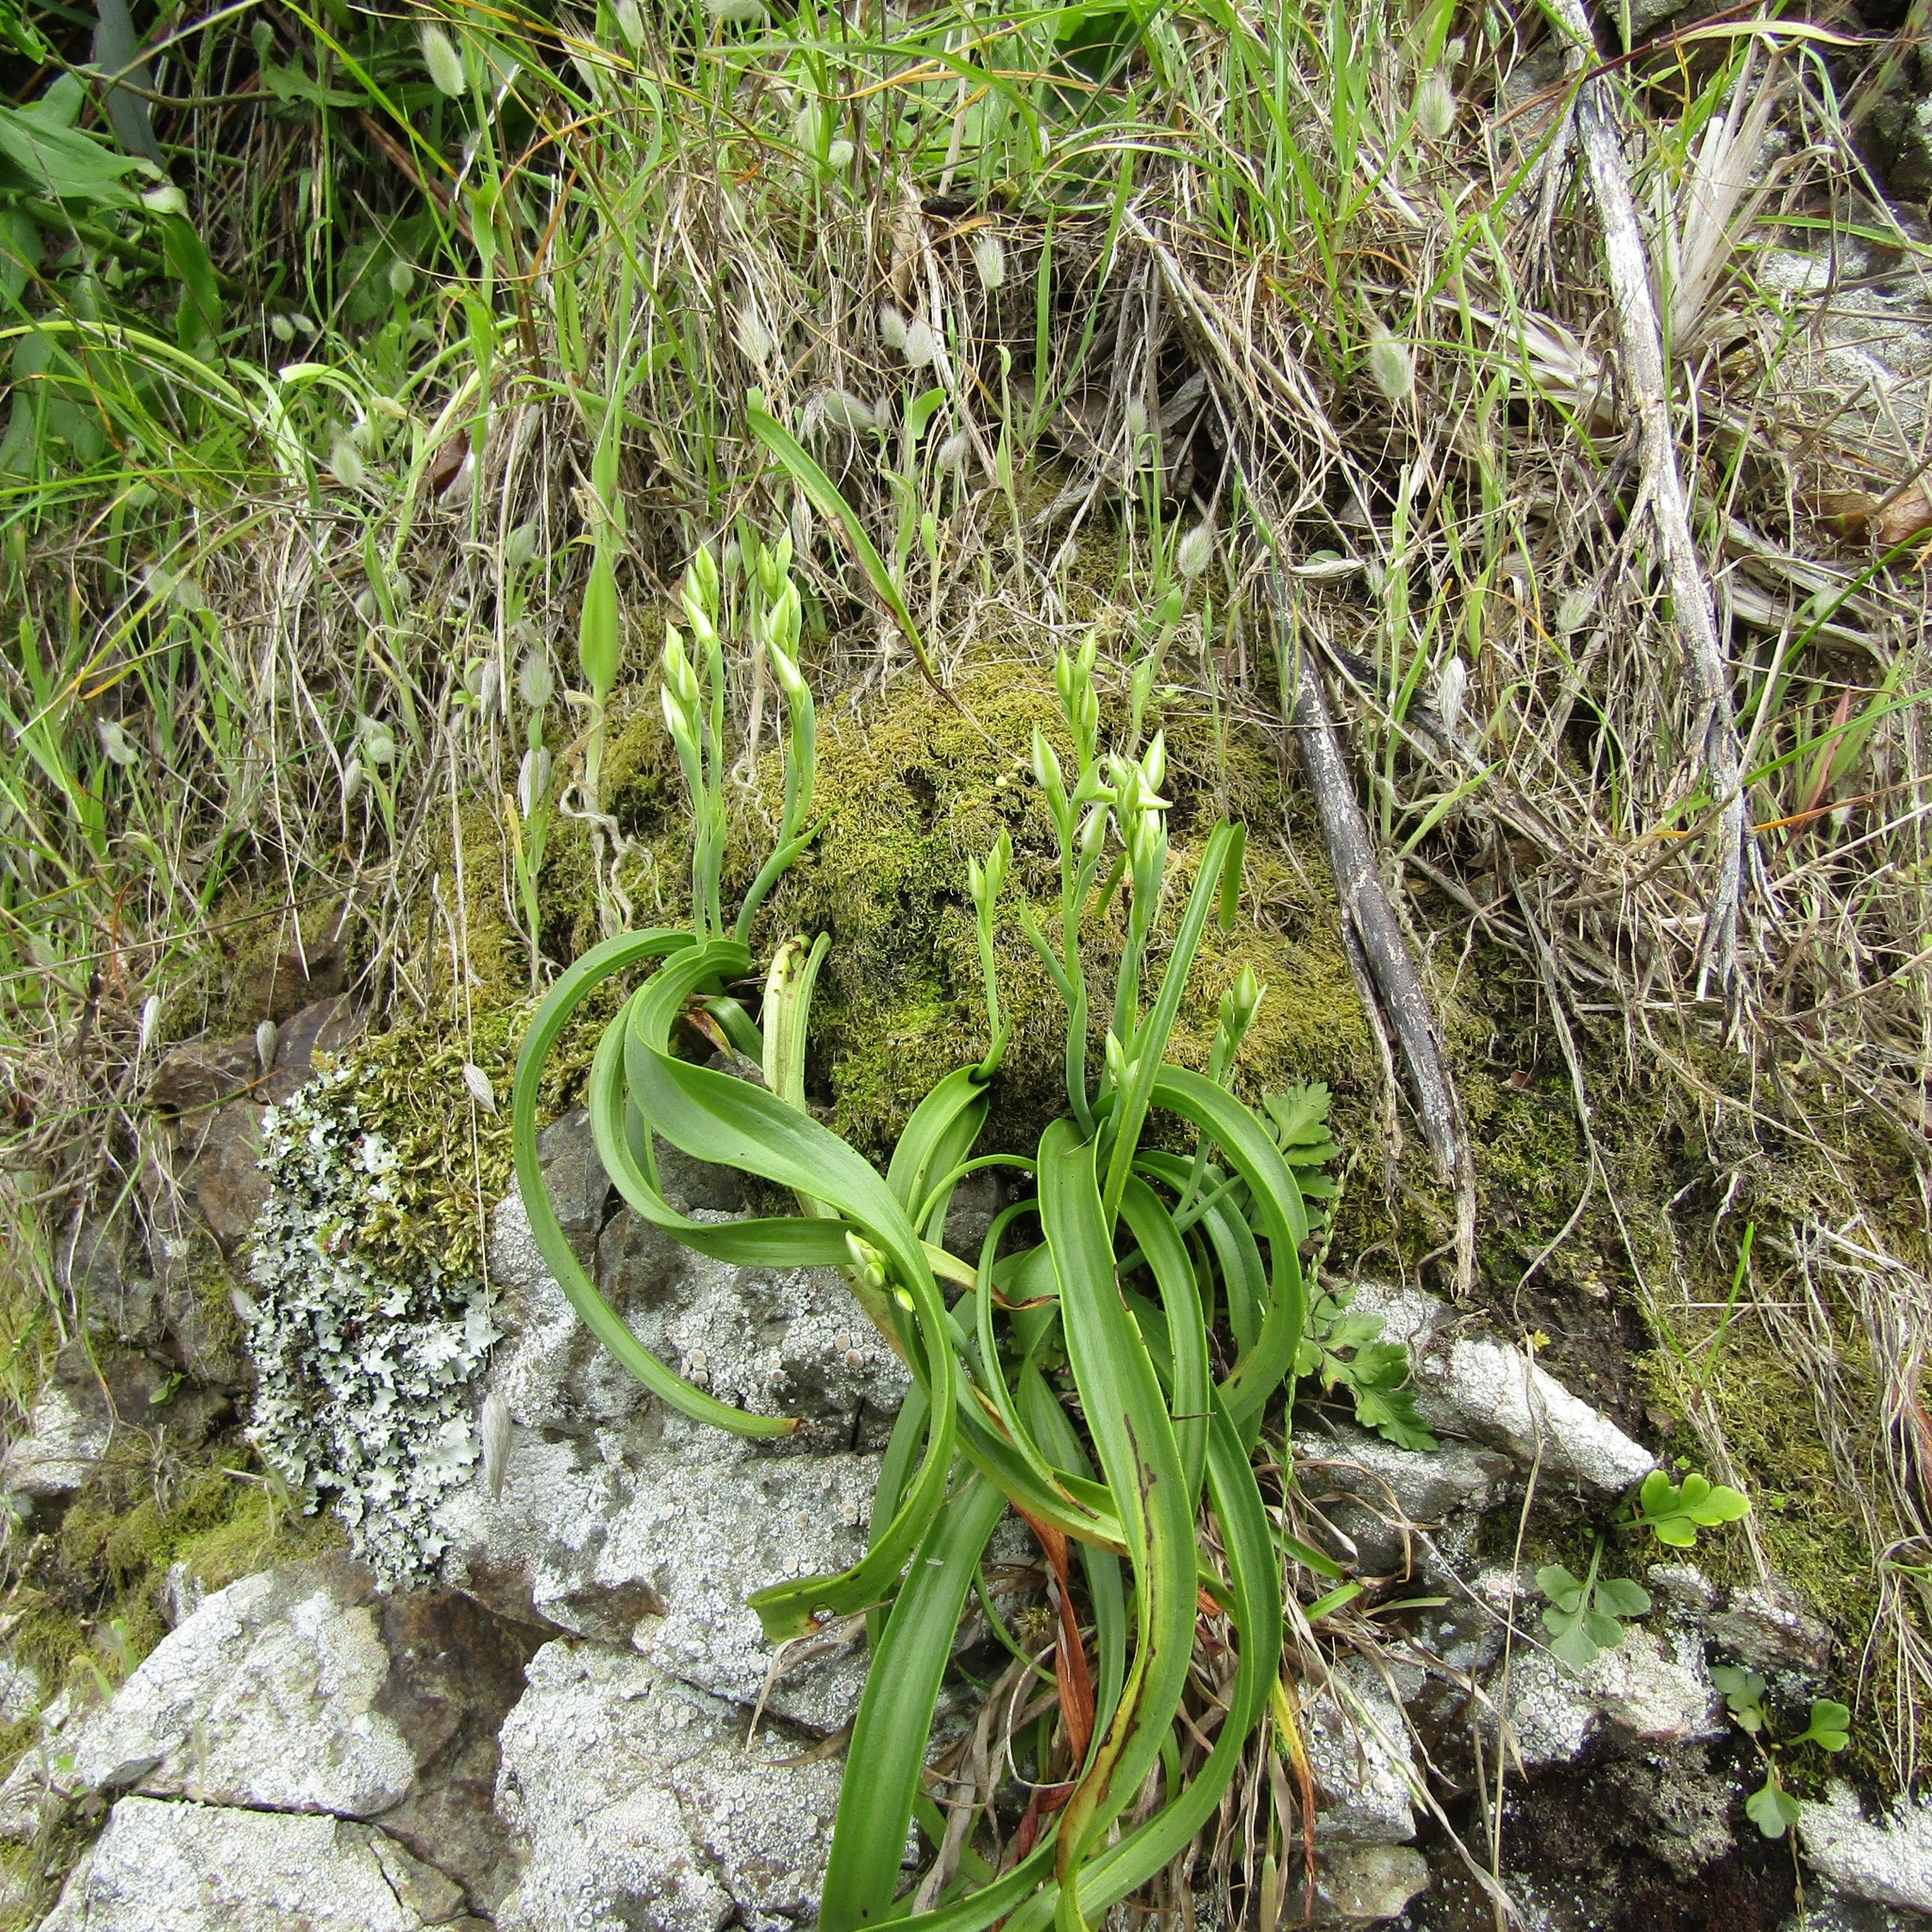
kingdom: Plantae
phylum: Tracheophyta
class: Liliopsida
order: Asparagales
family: Orchidaceae
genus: Thelymitra
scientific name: Thelymitra longifolia
